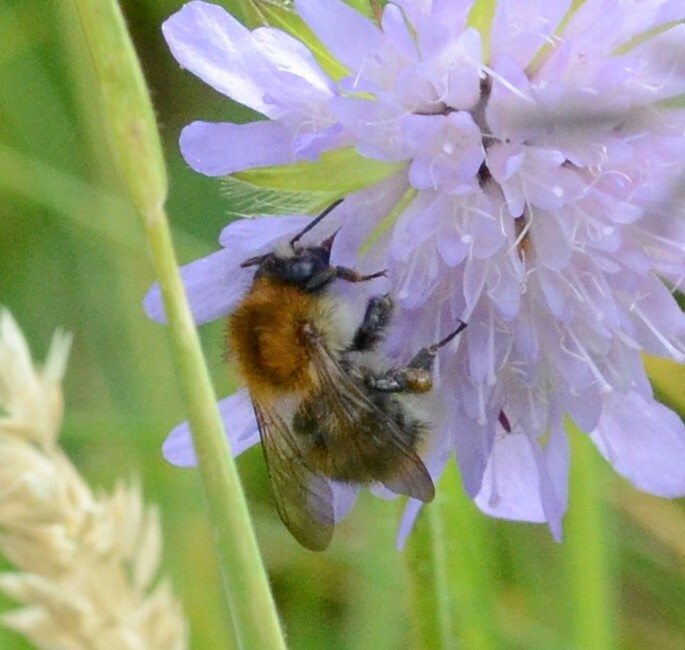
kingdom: Animalia
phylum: Arthropoda
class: Insecta
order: Hymenoptera
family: Apidae
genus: Bombus
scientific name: Bombus pascuorum
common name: Common carder bee
